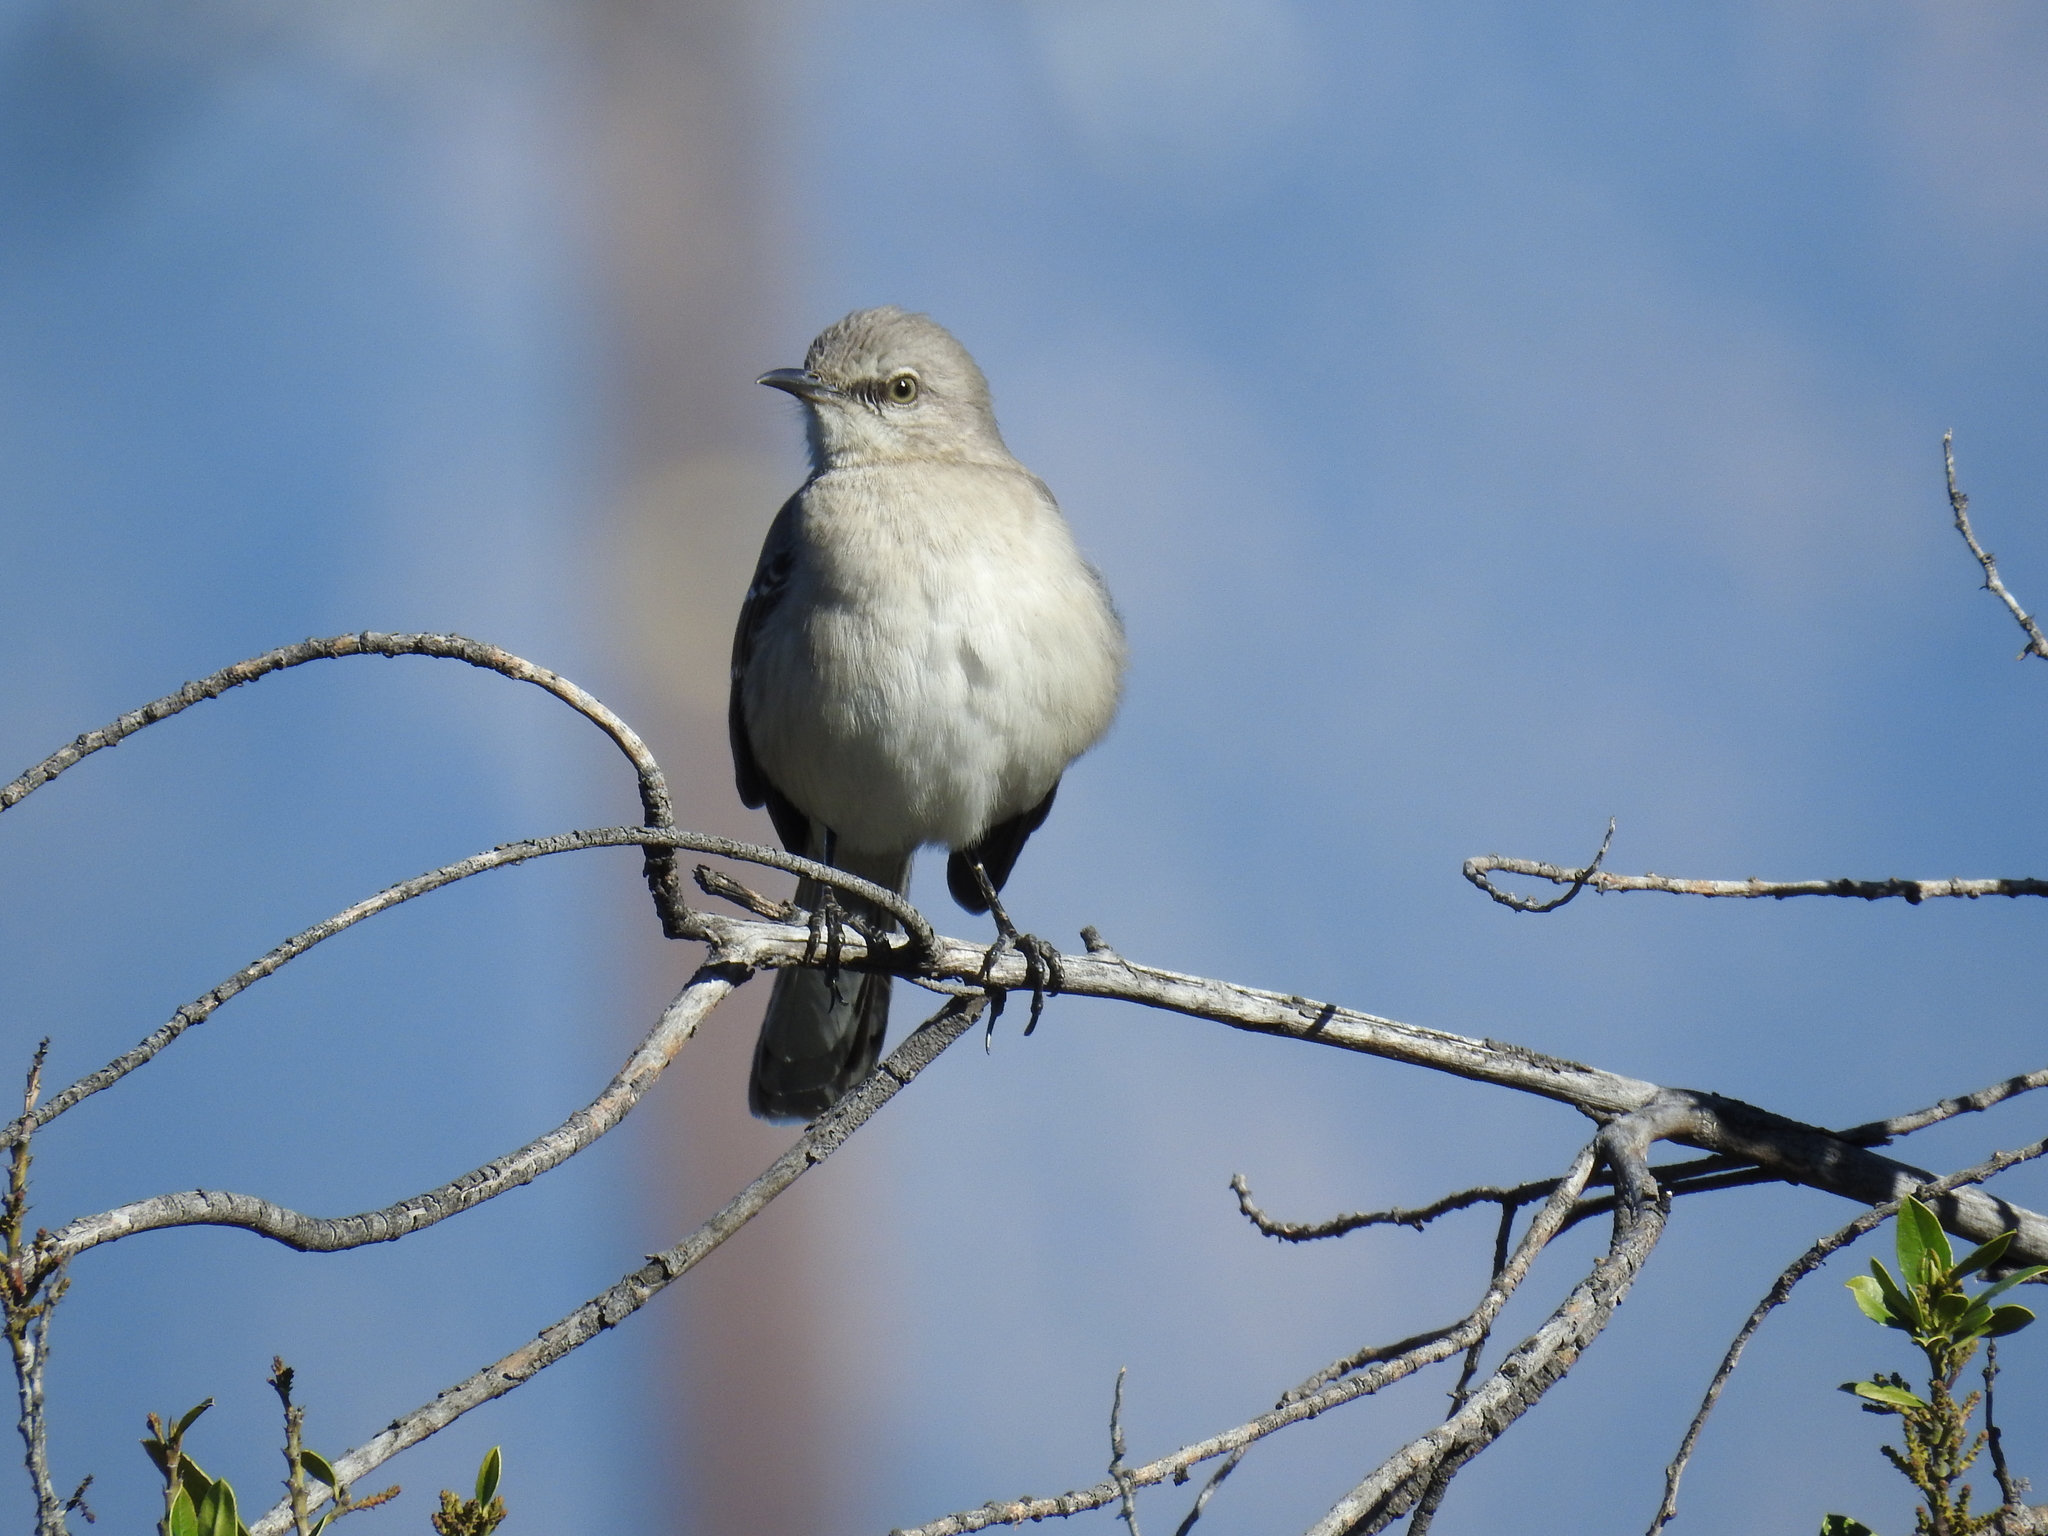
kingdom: Animalia
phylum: Chordata
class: Aves
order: Passeriformes
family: Mimidae
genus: Mimus
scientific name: Mimus polyglottos
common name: Northern mockingbird
